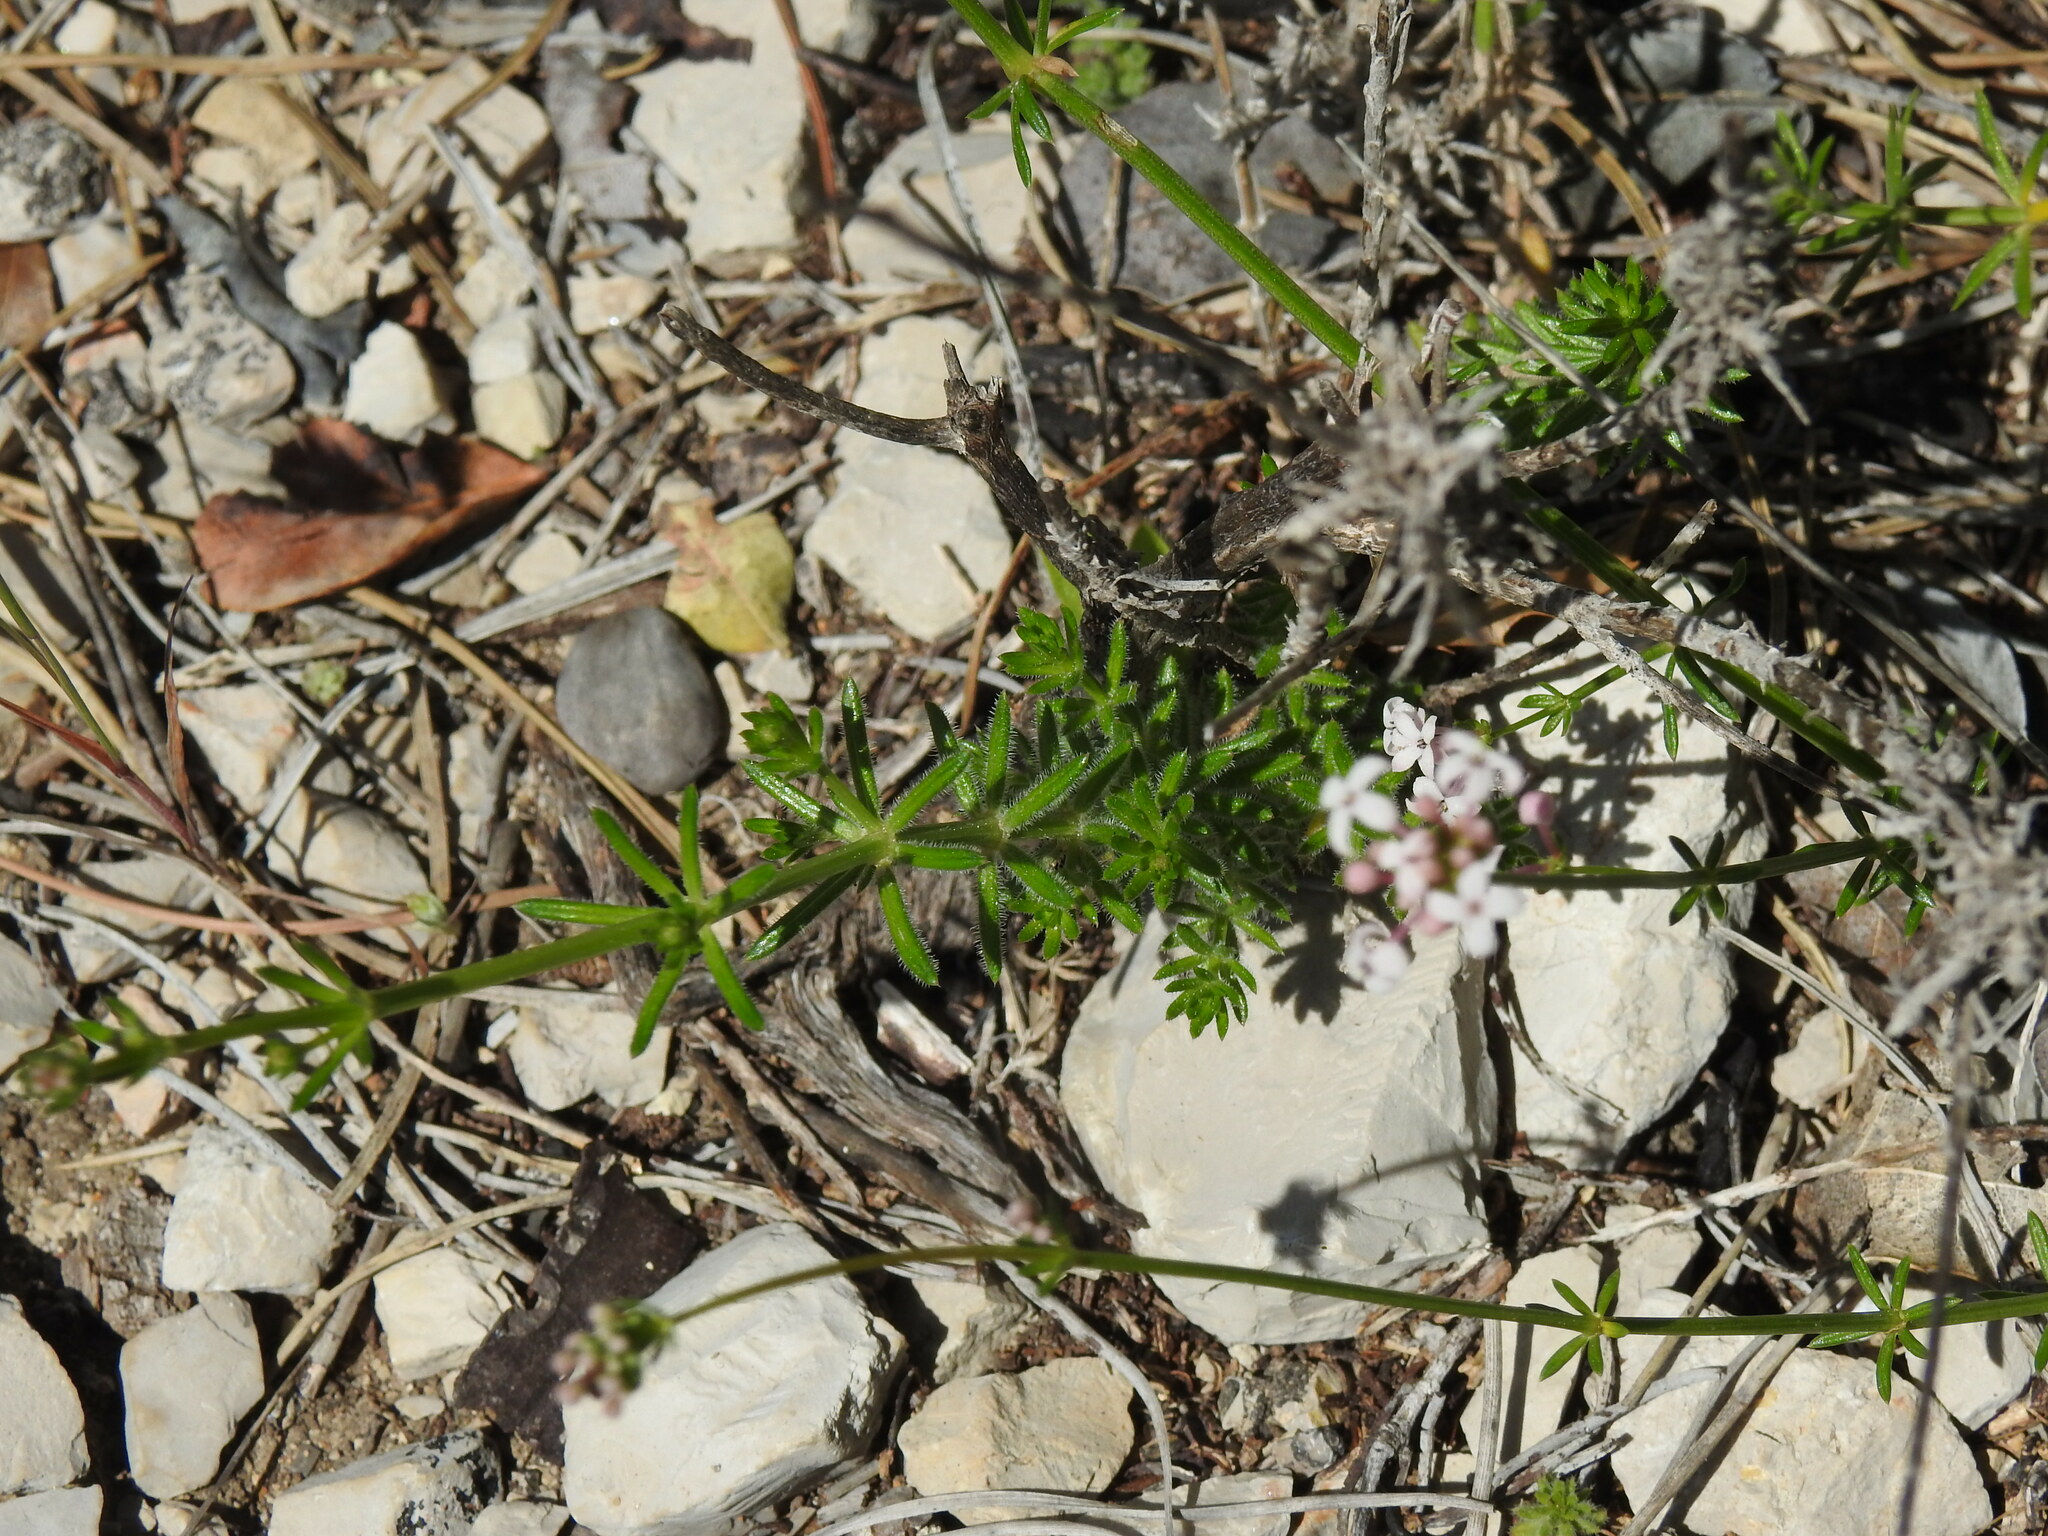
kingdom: Plantae
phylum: Tracheophyta
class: Magnoliopsida
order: Gentianales
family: Rubiaceae
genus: Hexaphylla
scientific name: Hexaphylla hirsuta
